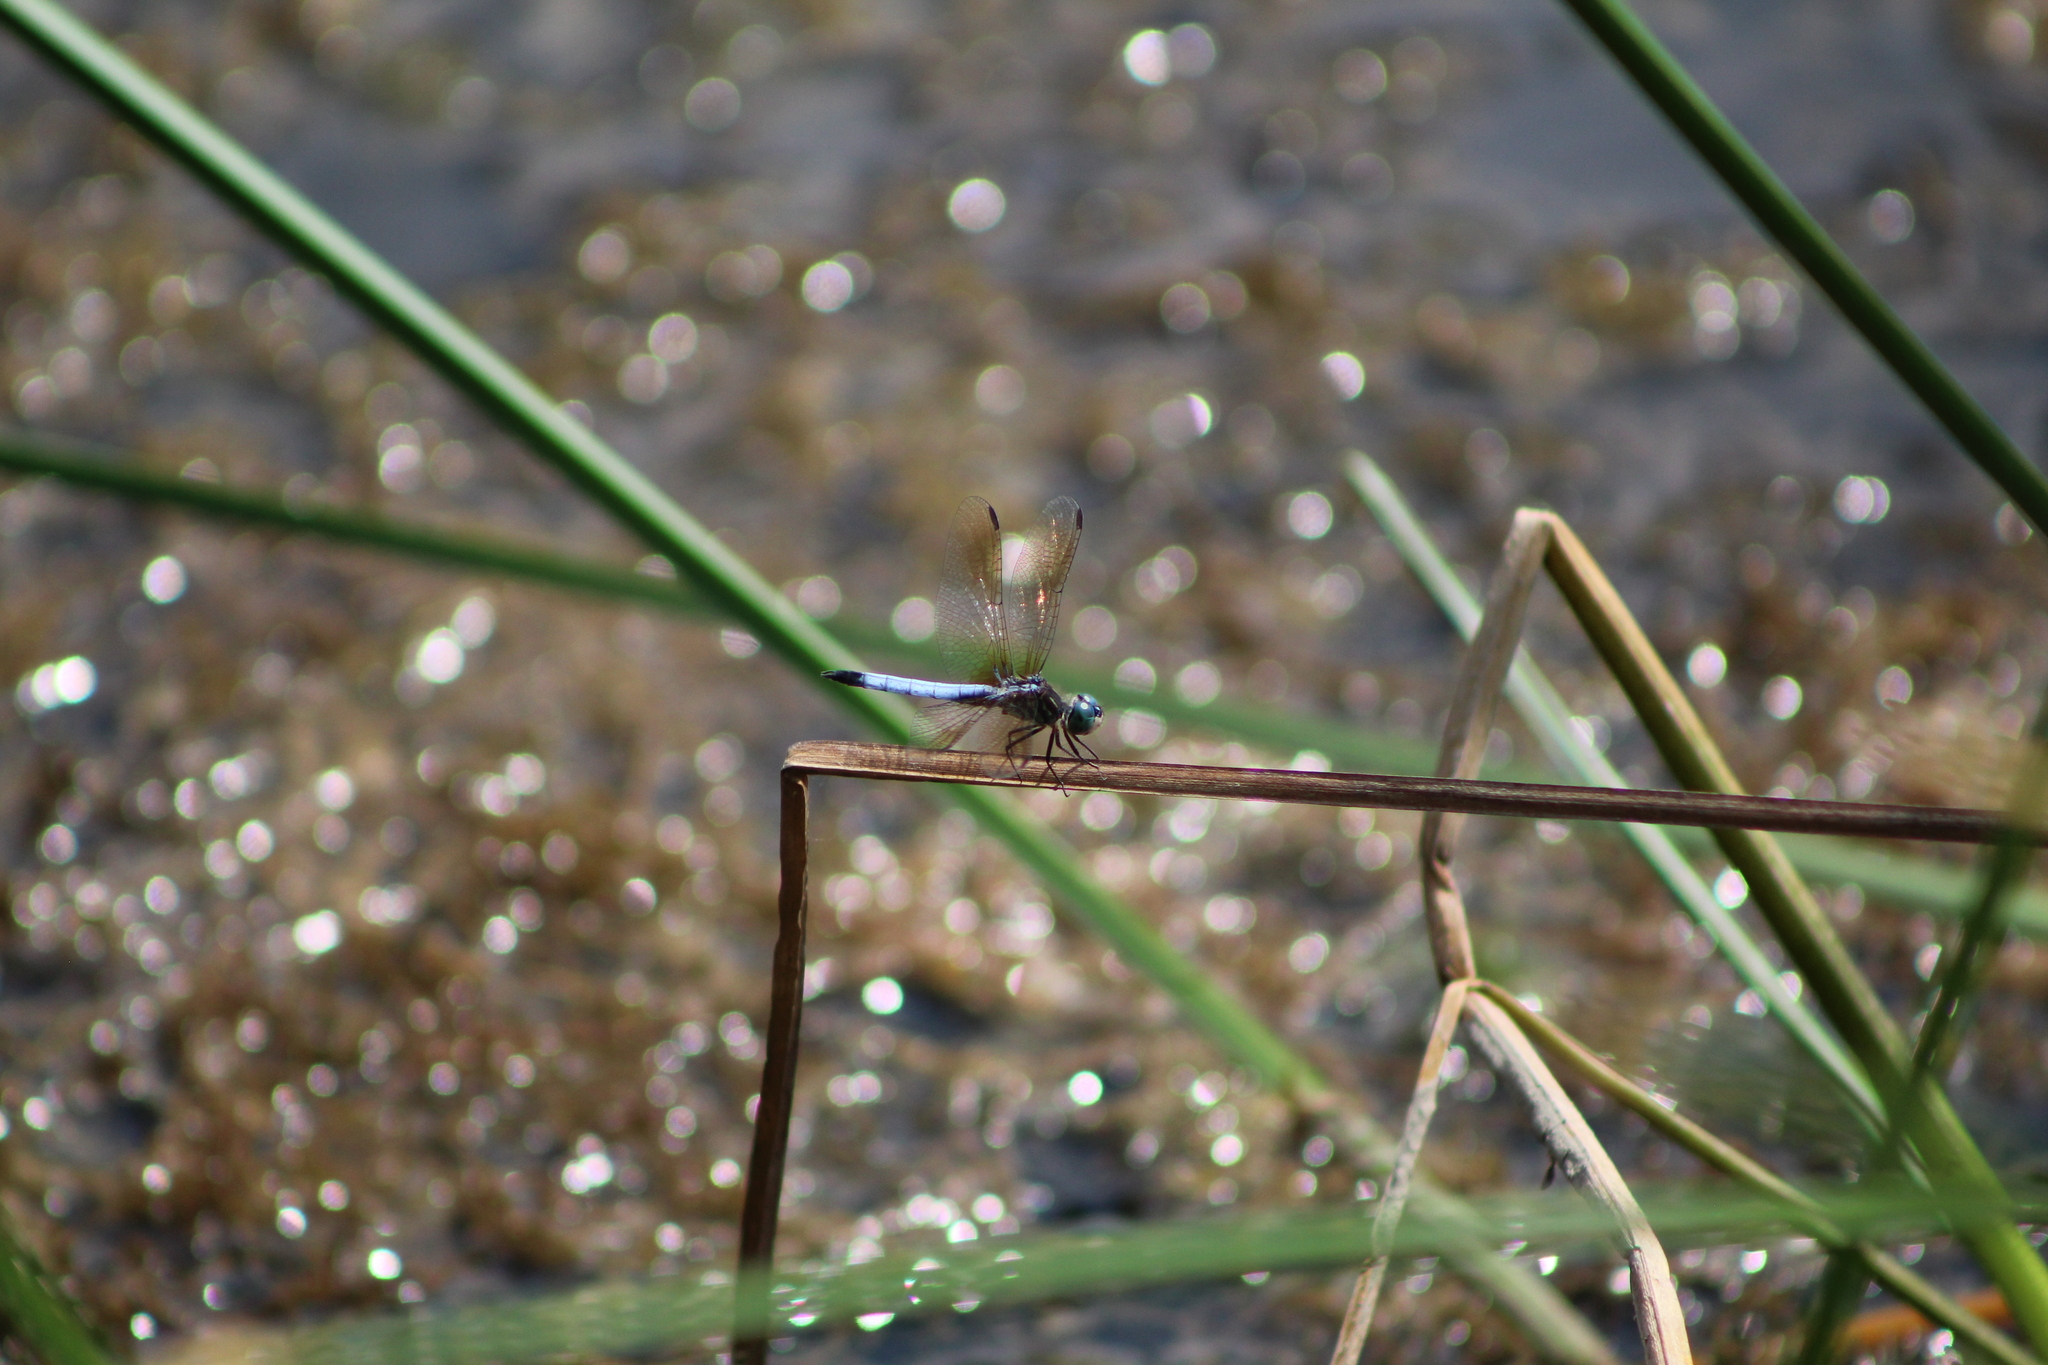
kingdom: Animalia
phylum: Arthropoda
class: Insecta
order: Odonata
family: Libellulidae
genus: Pachydiplax
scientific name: Pachydiplax longipennis
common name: Blue dasher
